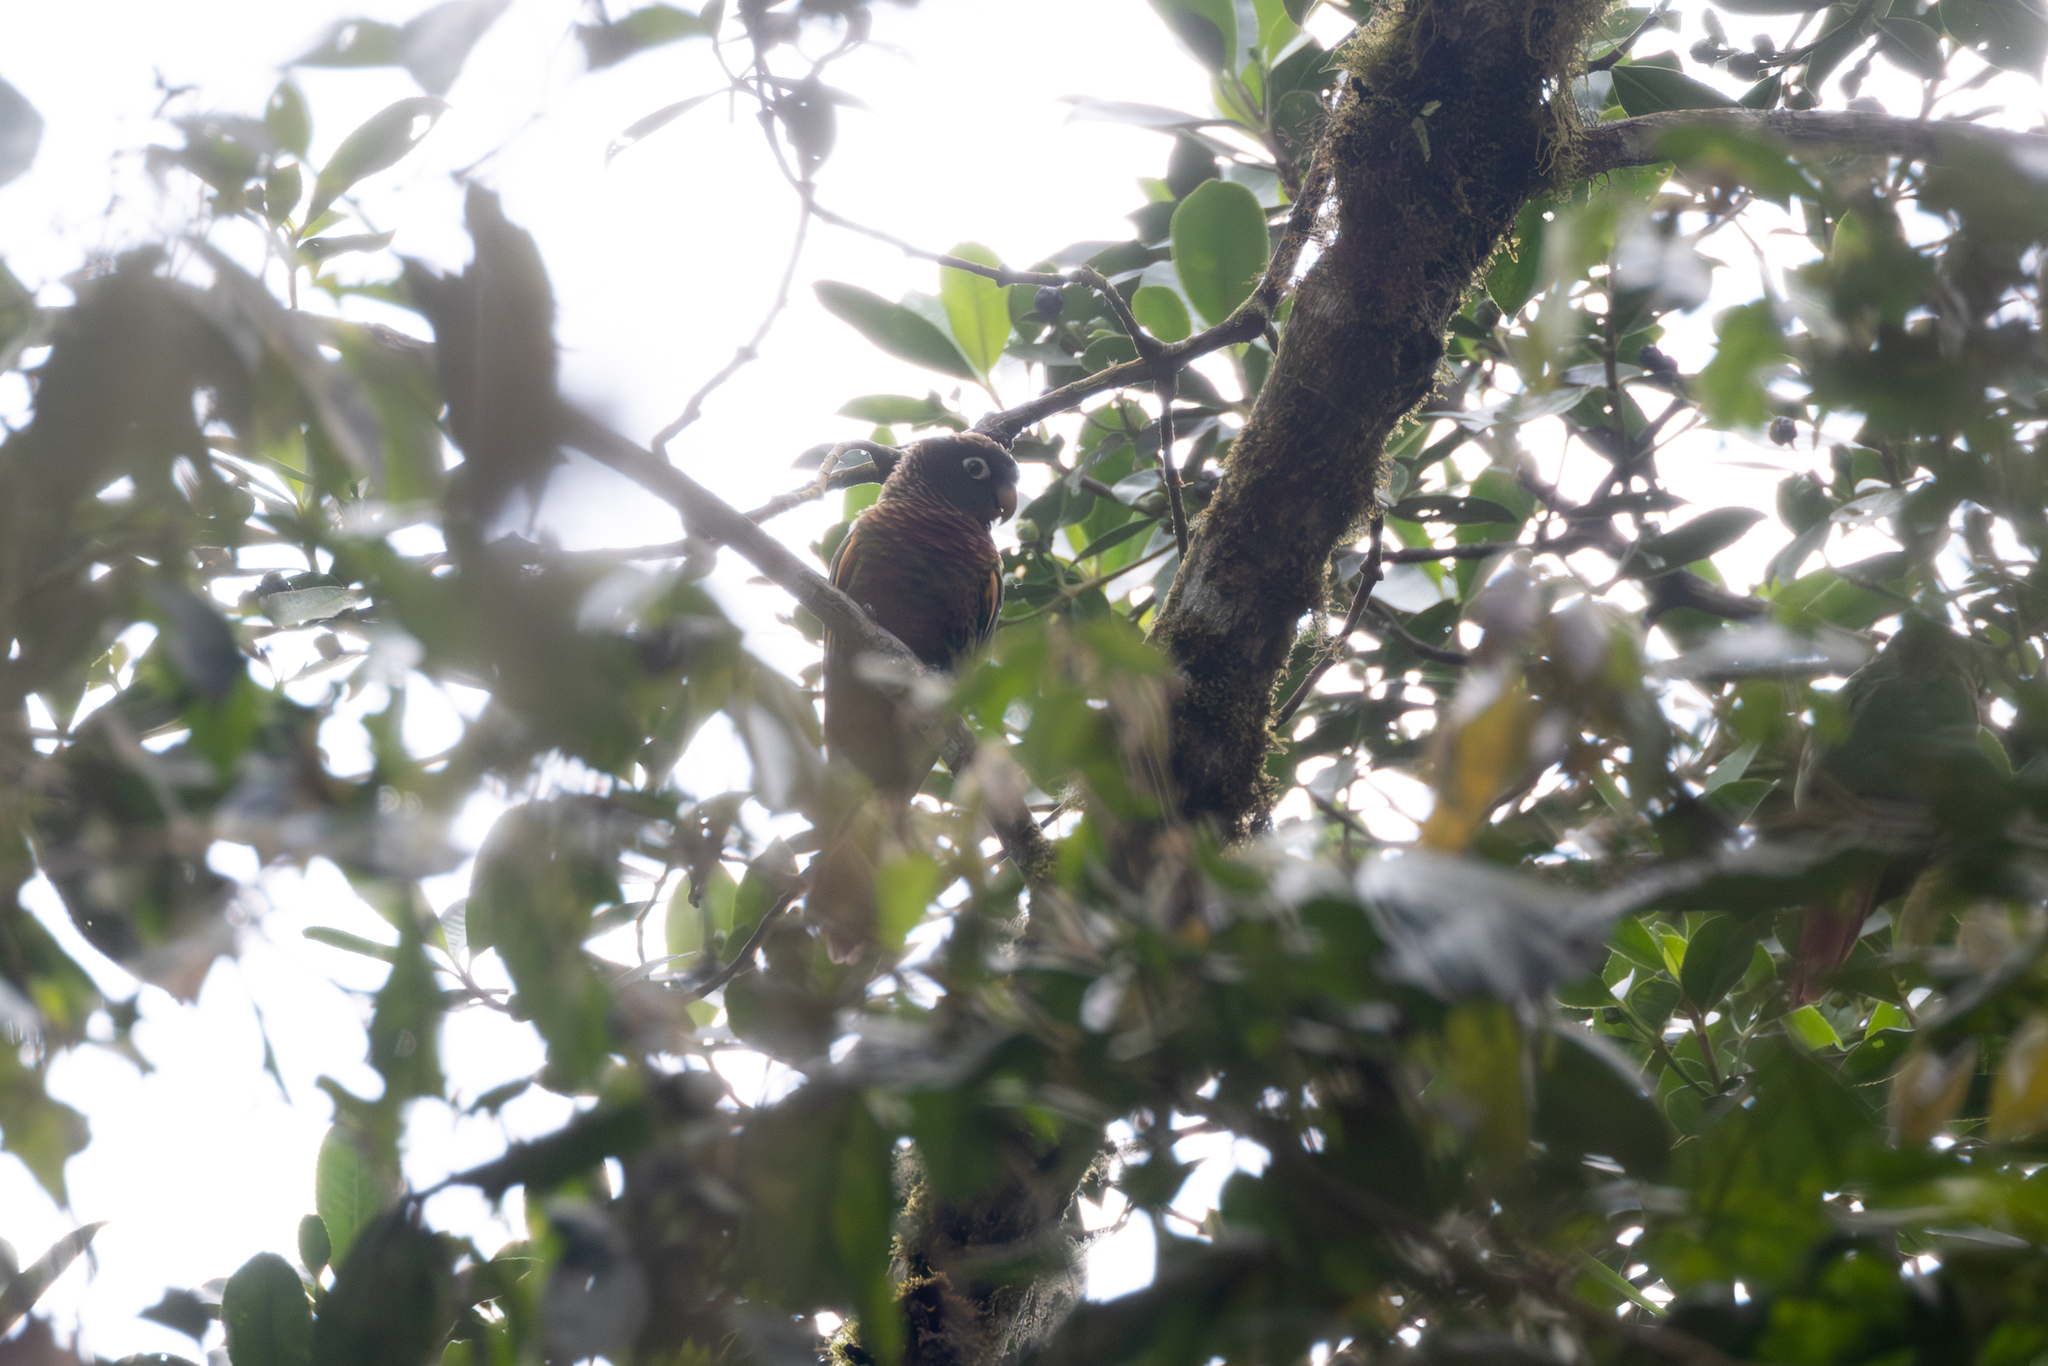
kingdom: Animalia
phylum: Chordata
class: Aves
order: Psittaciformes
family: Psittacidae
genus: Pionus
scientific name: Pionus chalcopterus
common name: Bronze-winged parrot
